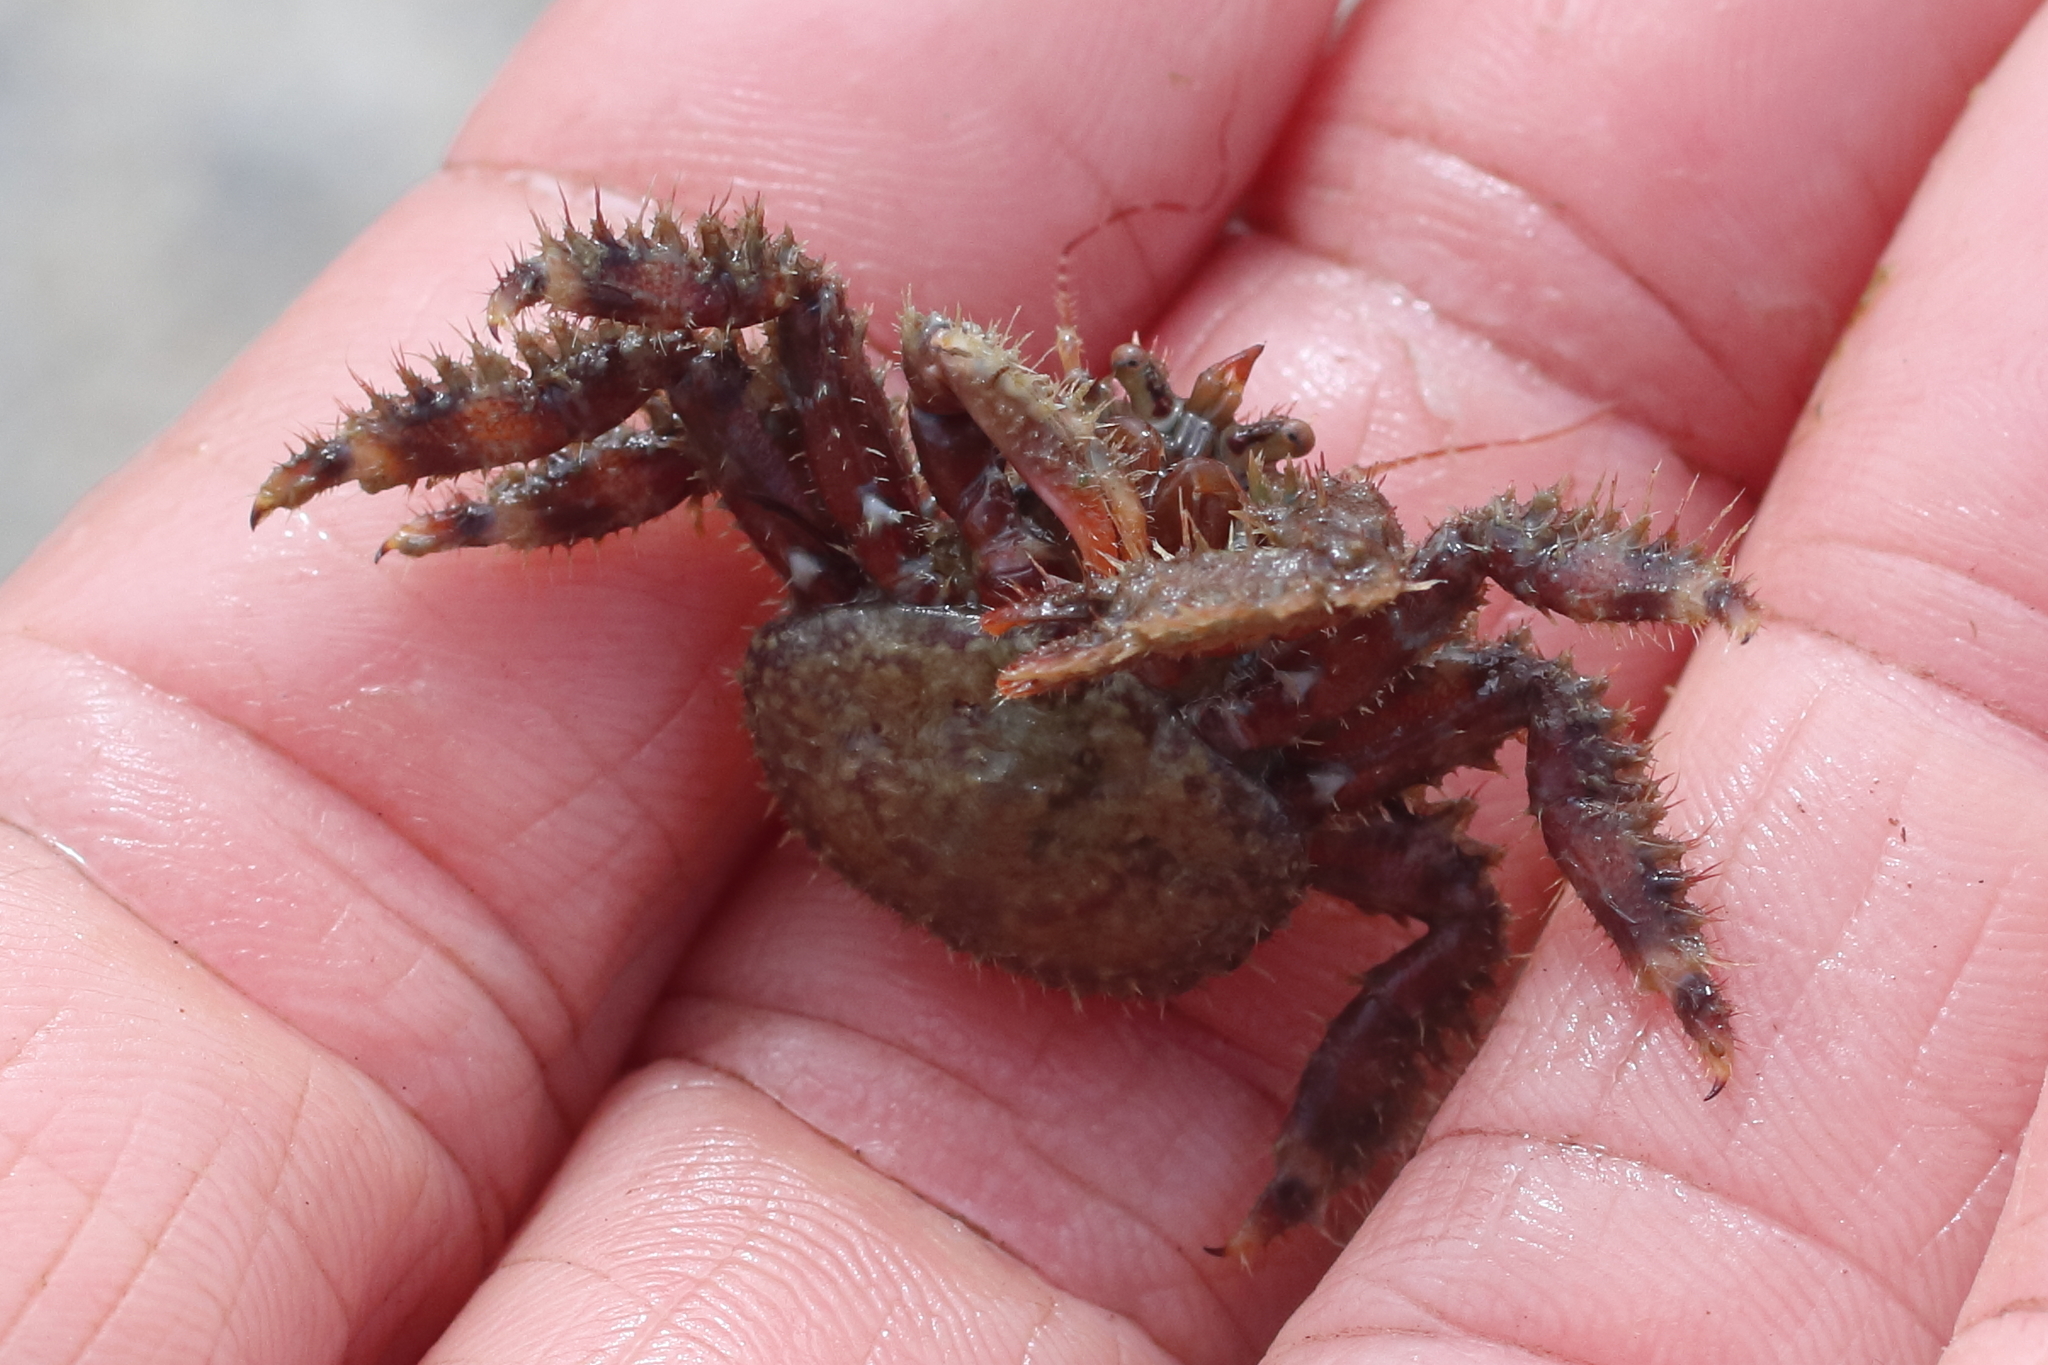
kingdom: Animalia
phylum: Arthropoda
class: Malacostraca
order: Decapoda
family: Hapalogastridae
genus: Hapalogaster
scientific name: Hapalogaster mertensii
